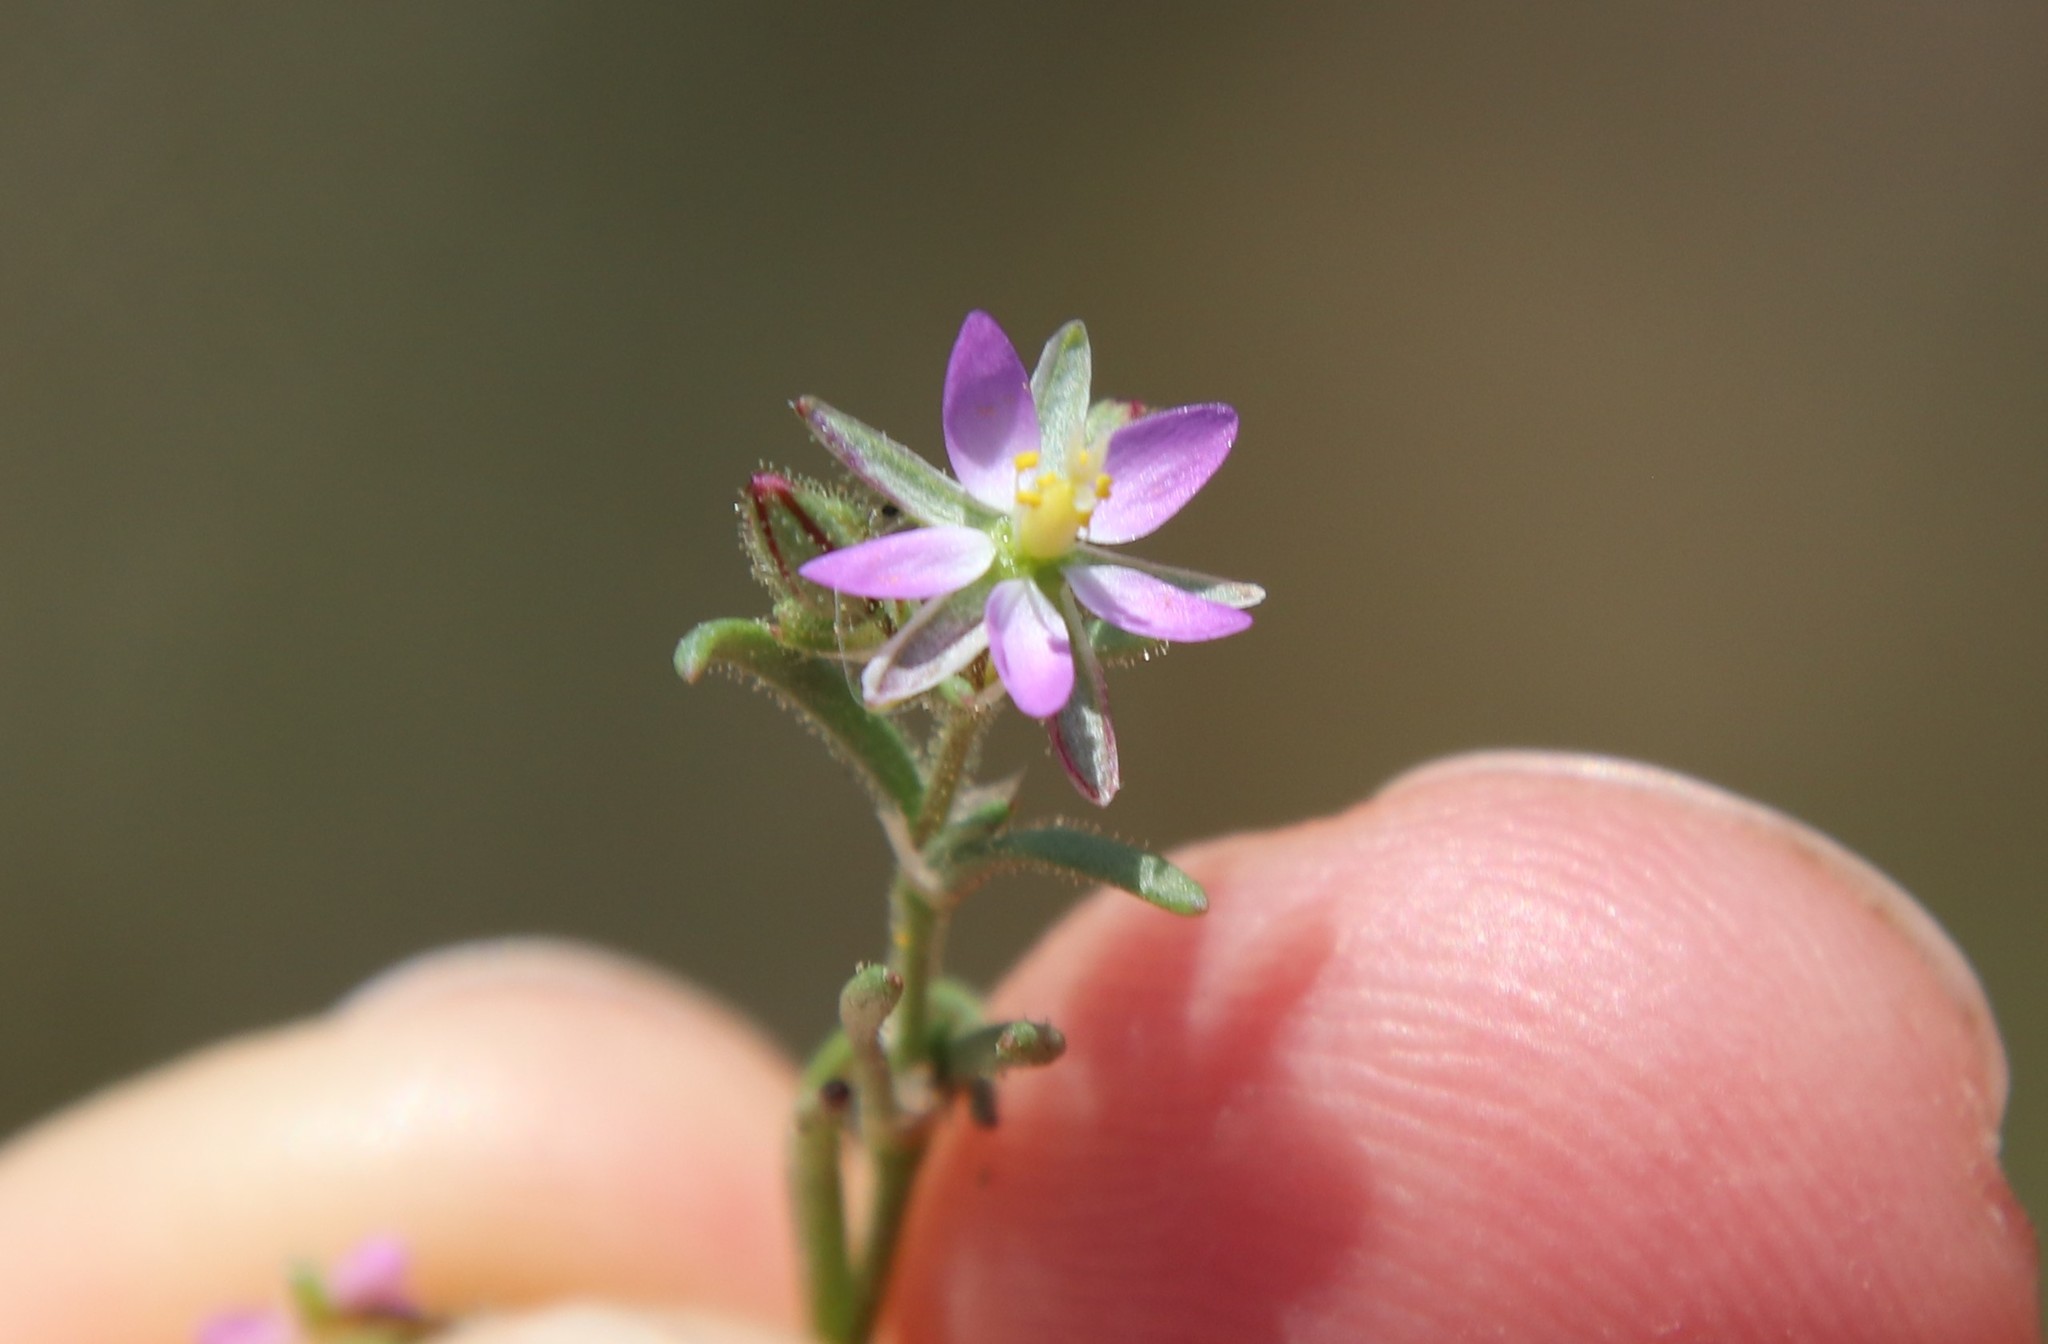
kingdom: Plantae
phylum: Tracheophyta
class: Magnoliopsida
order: Caryophyllales
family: Caryophyllaceae
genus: Spergularia
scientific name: Spergularia bocconei
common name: Greek sea-spurrey
